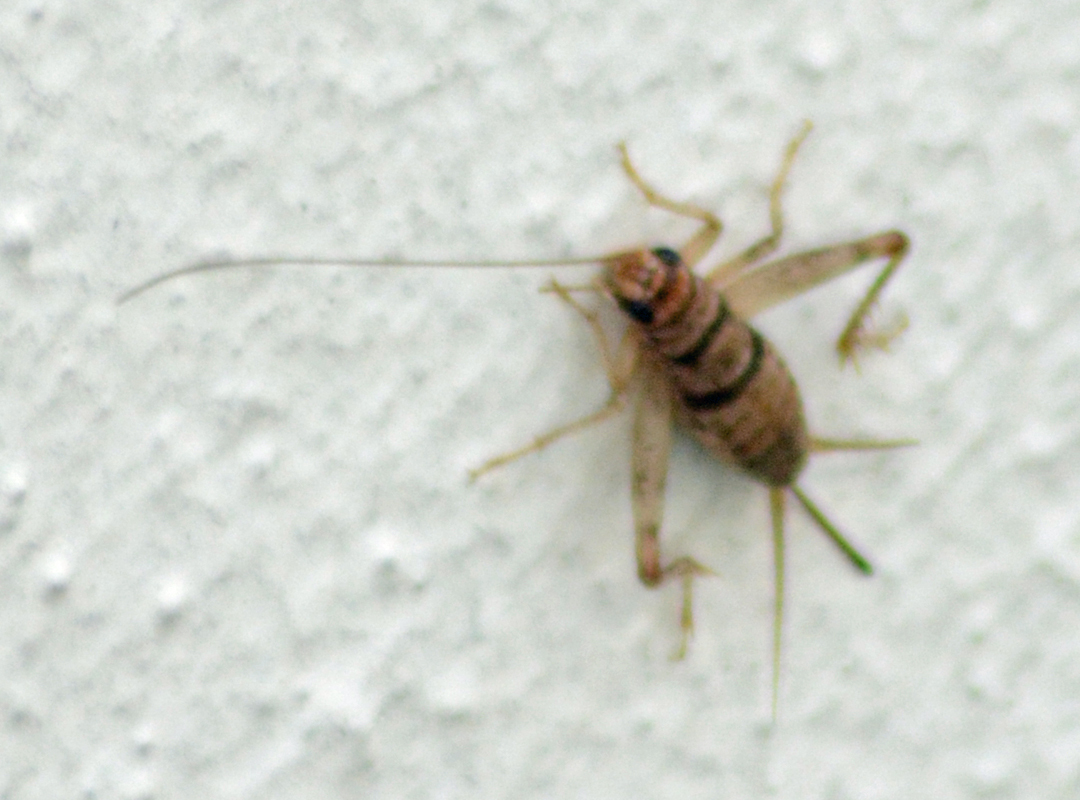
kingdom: Animalia
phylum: Arthropoda
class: Insecta
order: Orthoptera
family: Gryllidae
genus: Gryllodes
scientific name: Gryllodes sigillatus
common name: Tropical house cricket
